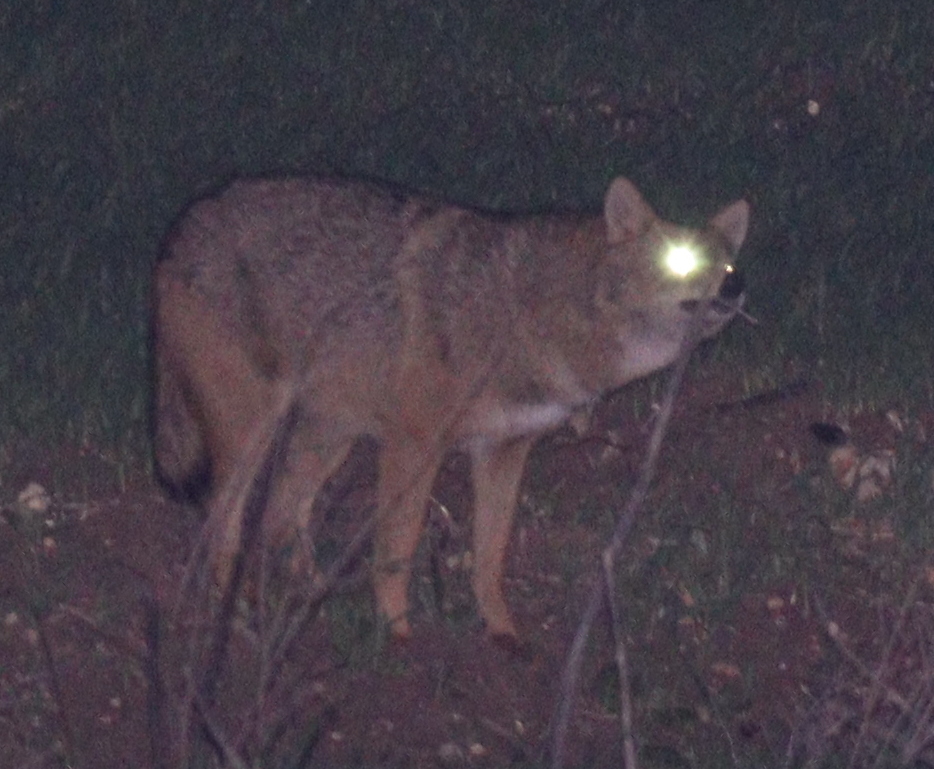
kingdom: Animalia
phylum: Chordata
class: Mammalia
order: Carnivora
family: Canidae
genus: Canis
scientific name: Canis aureus
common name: Golden jackal
